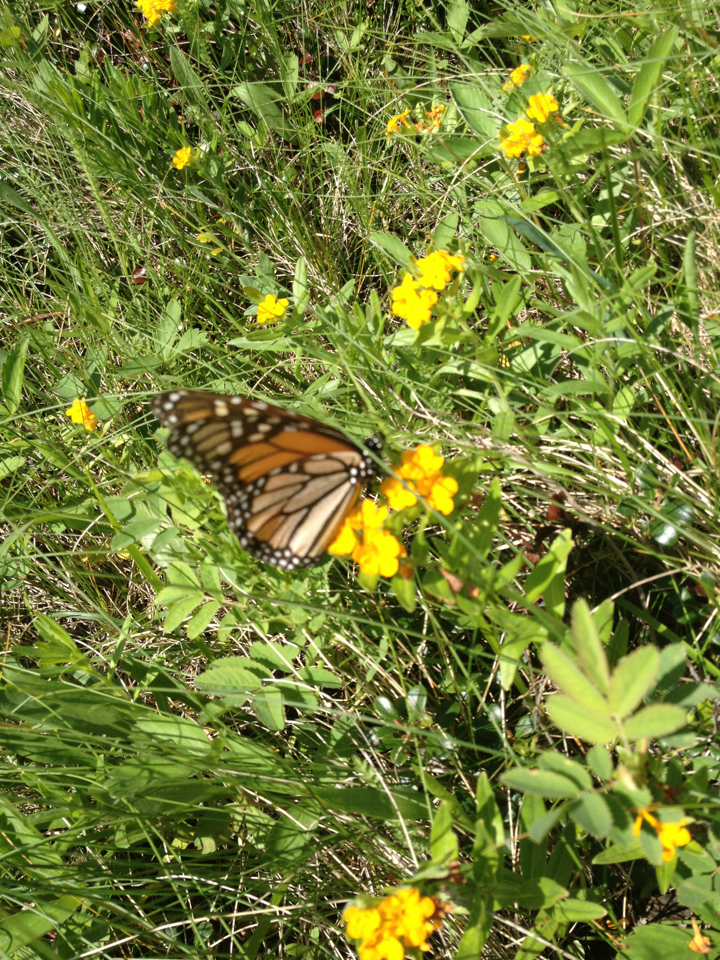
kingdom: Plantae
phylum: Tracheophyta
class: Magnoliopsida
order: Boraginales
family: Boraginaceae
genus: Lithospermum
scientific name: Lithospermum canescens
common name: Hoary puccoon
